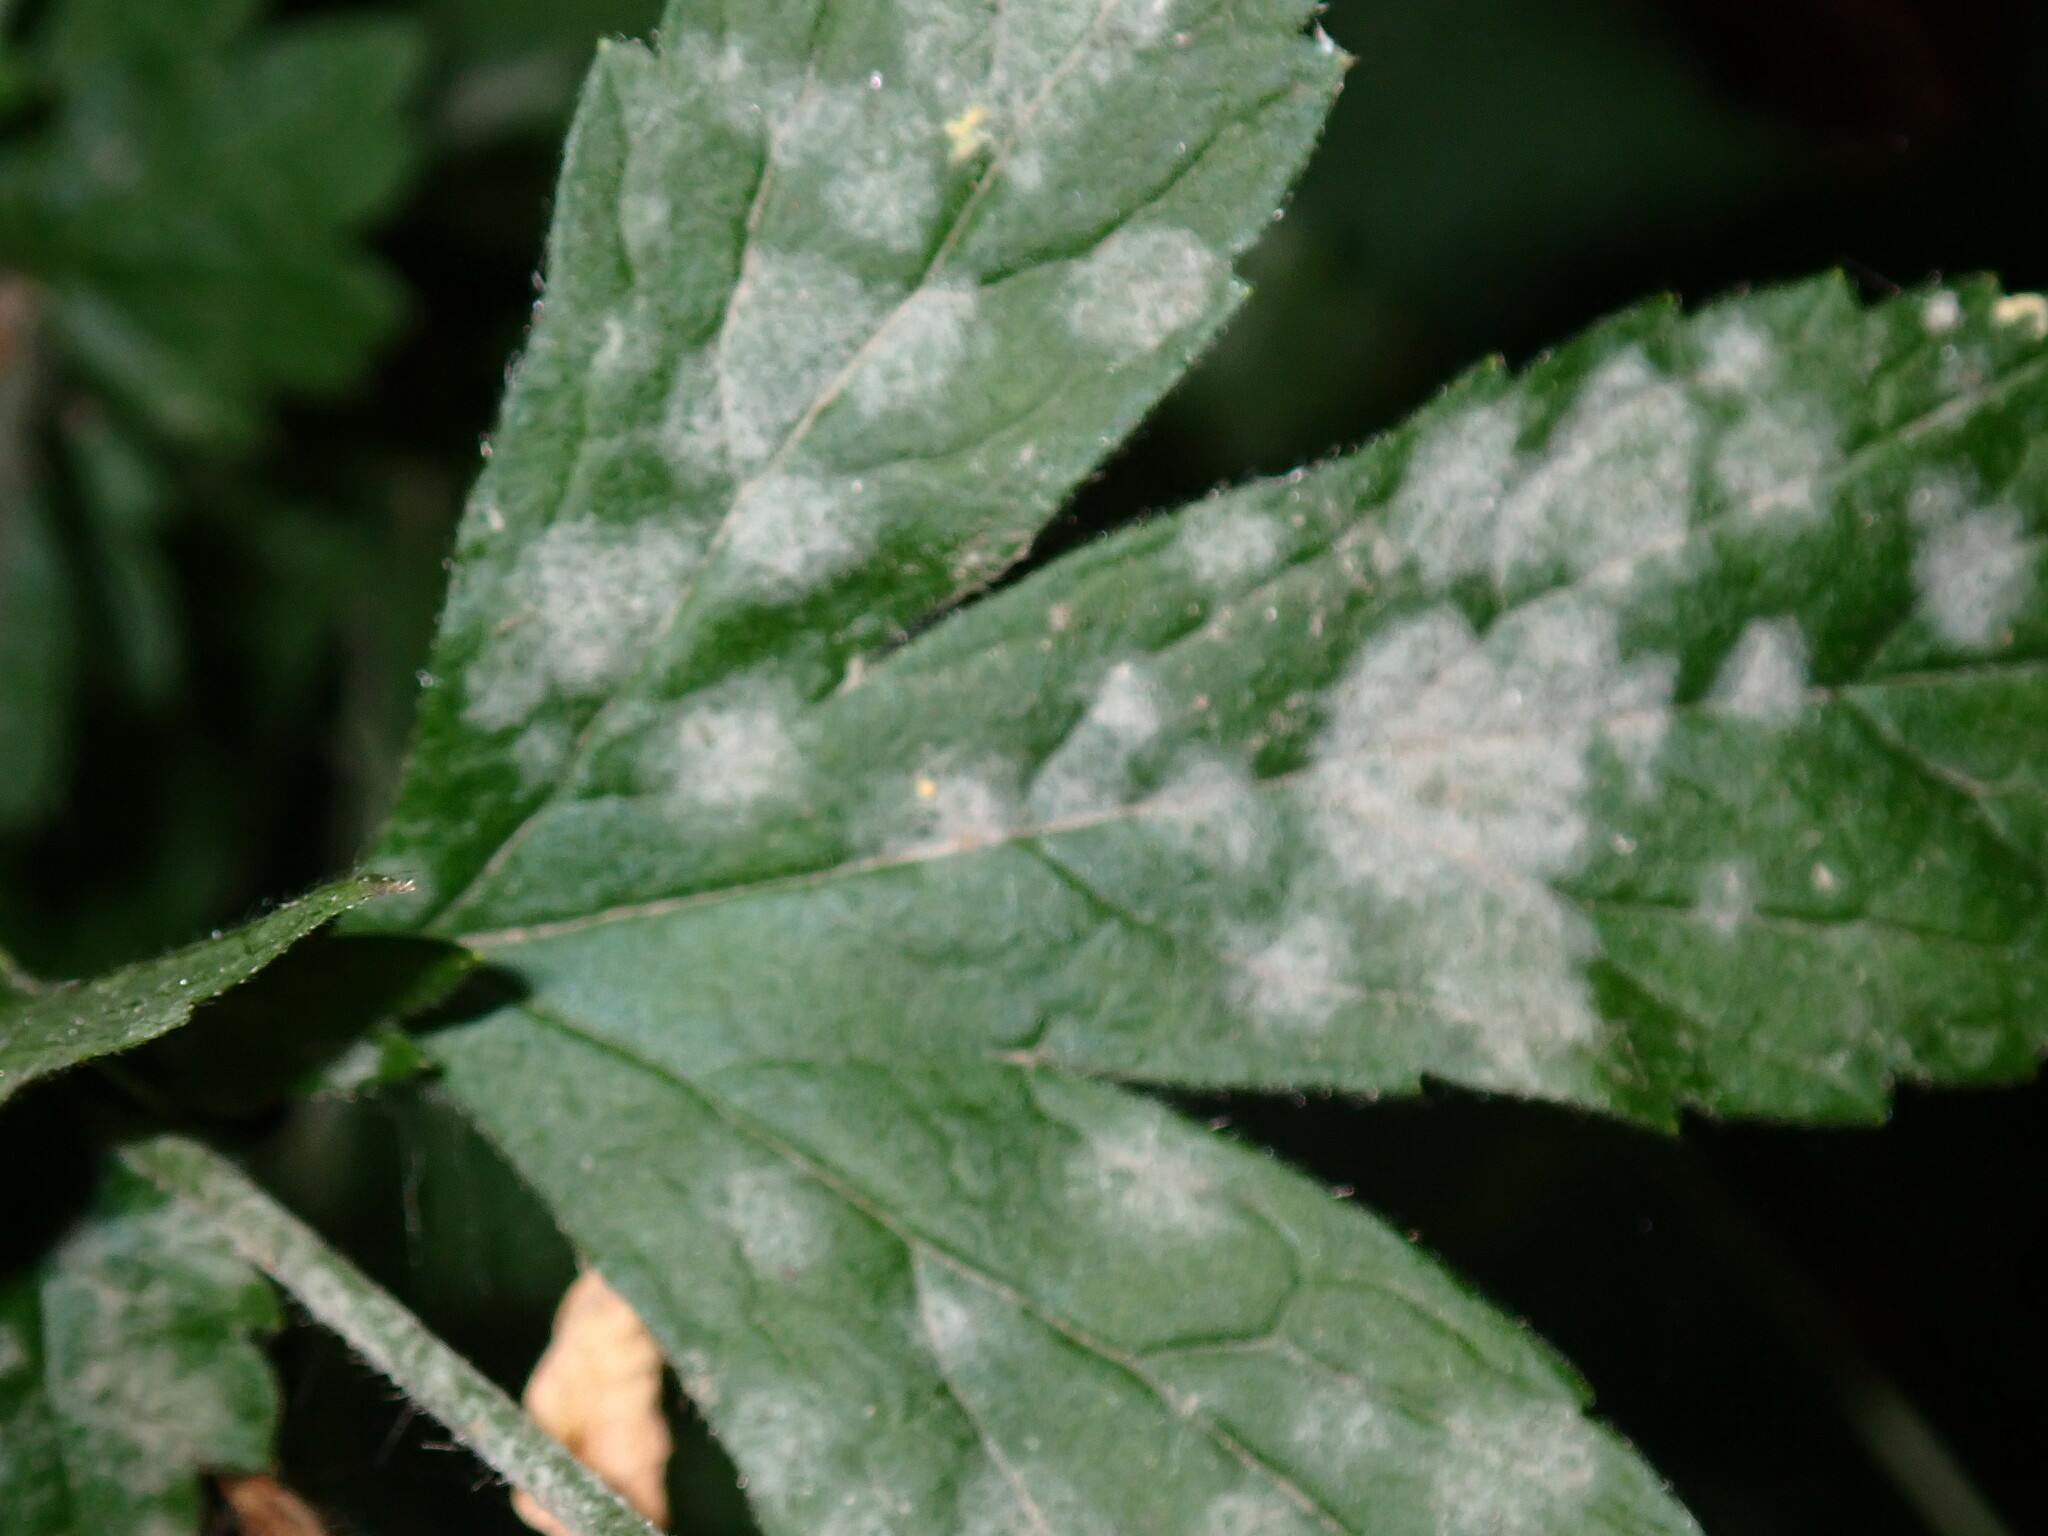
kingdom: Fungi
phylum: Ascomycota
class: Leotiomycetes
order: Helotiales
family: Erysiphaceae
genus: Podosphaera
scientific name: Podosphaera aphanis
